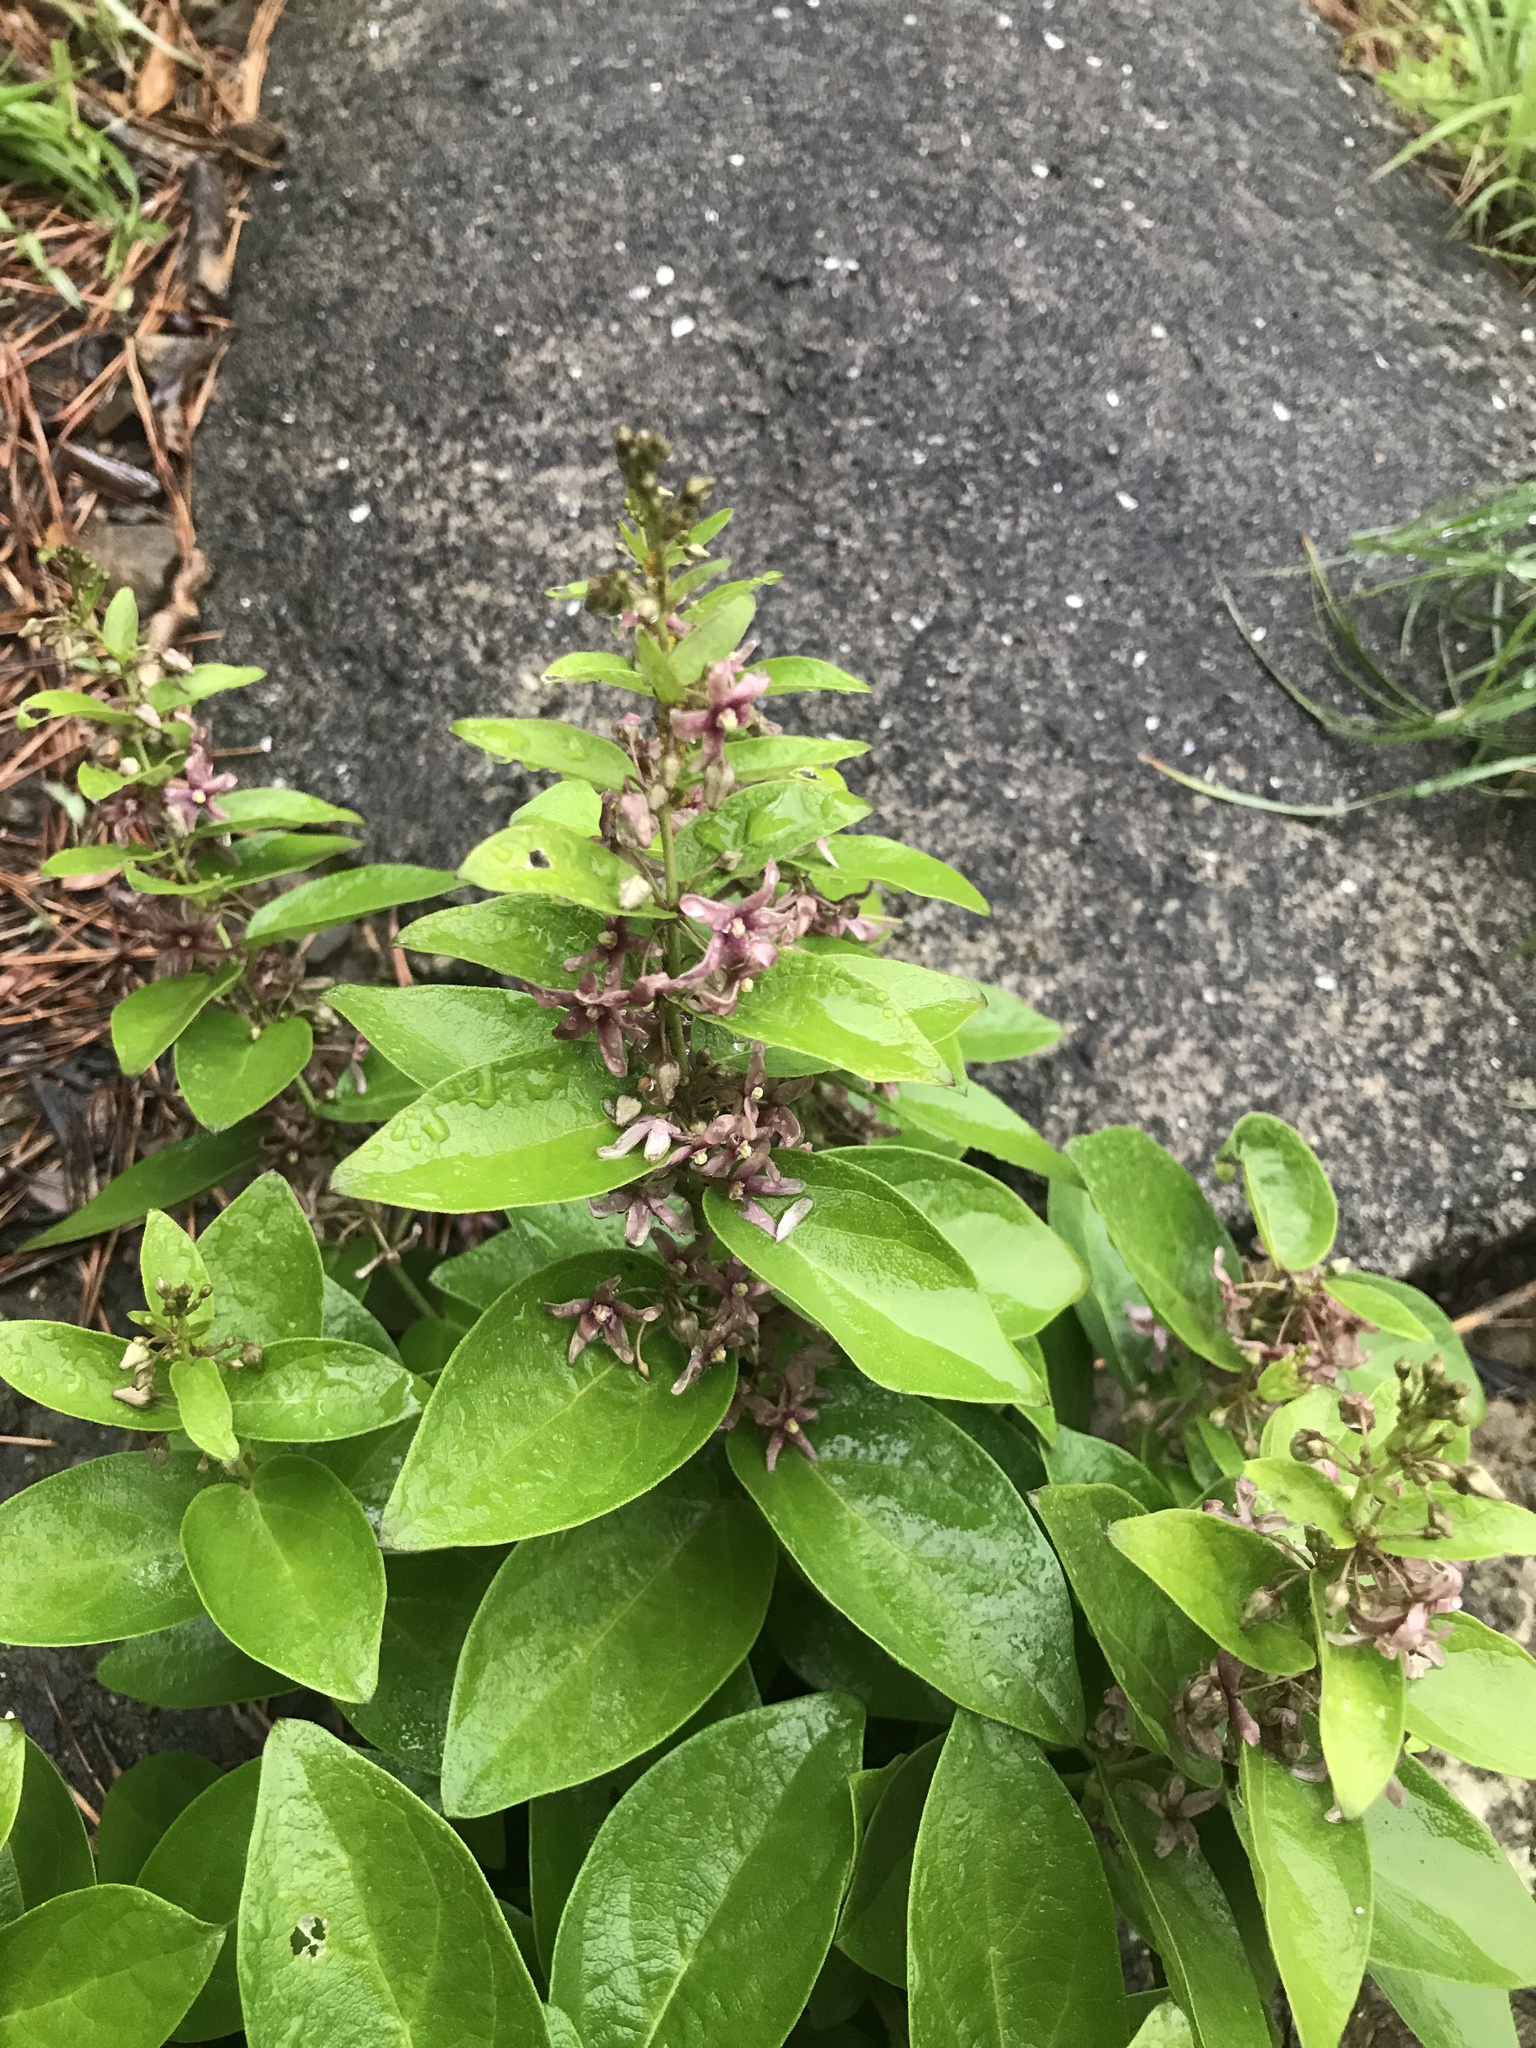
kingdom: Plantae
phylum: Tracheophyta
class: Magnoliopsida
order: Gentianales
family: Apocynaceae
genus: Vincetoxicum
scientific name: Vincetoxicum japonicum
